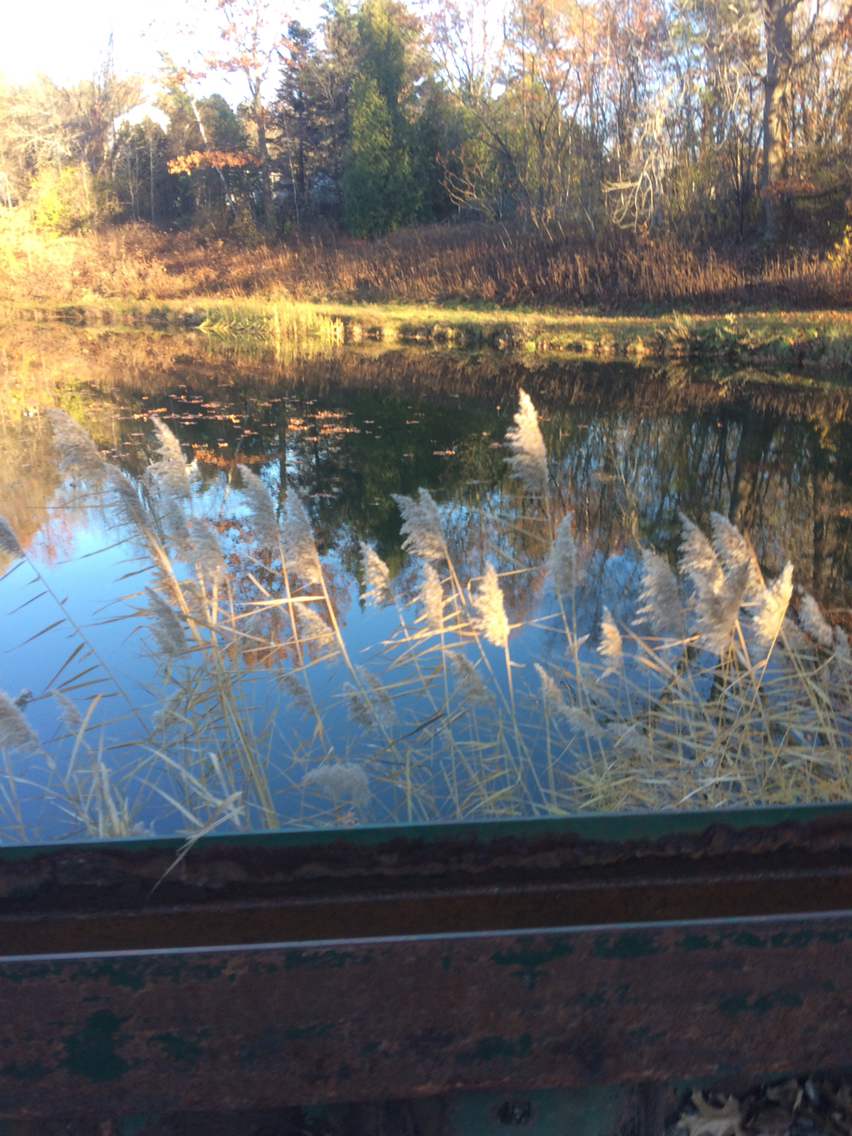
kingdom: Plantae
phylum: Tracheophyta
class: Liliopsida
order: Poales
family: Poaceae
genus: Phragmites
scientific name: Phragmites australis
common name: Common reed
